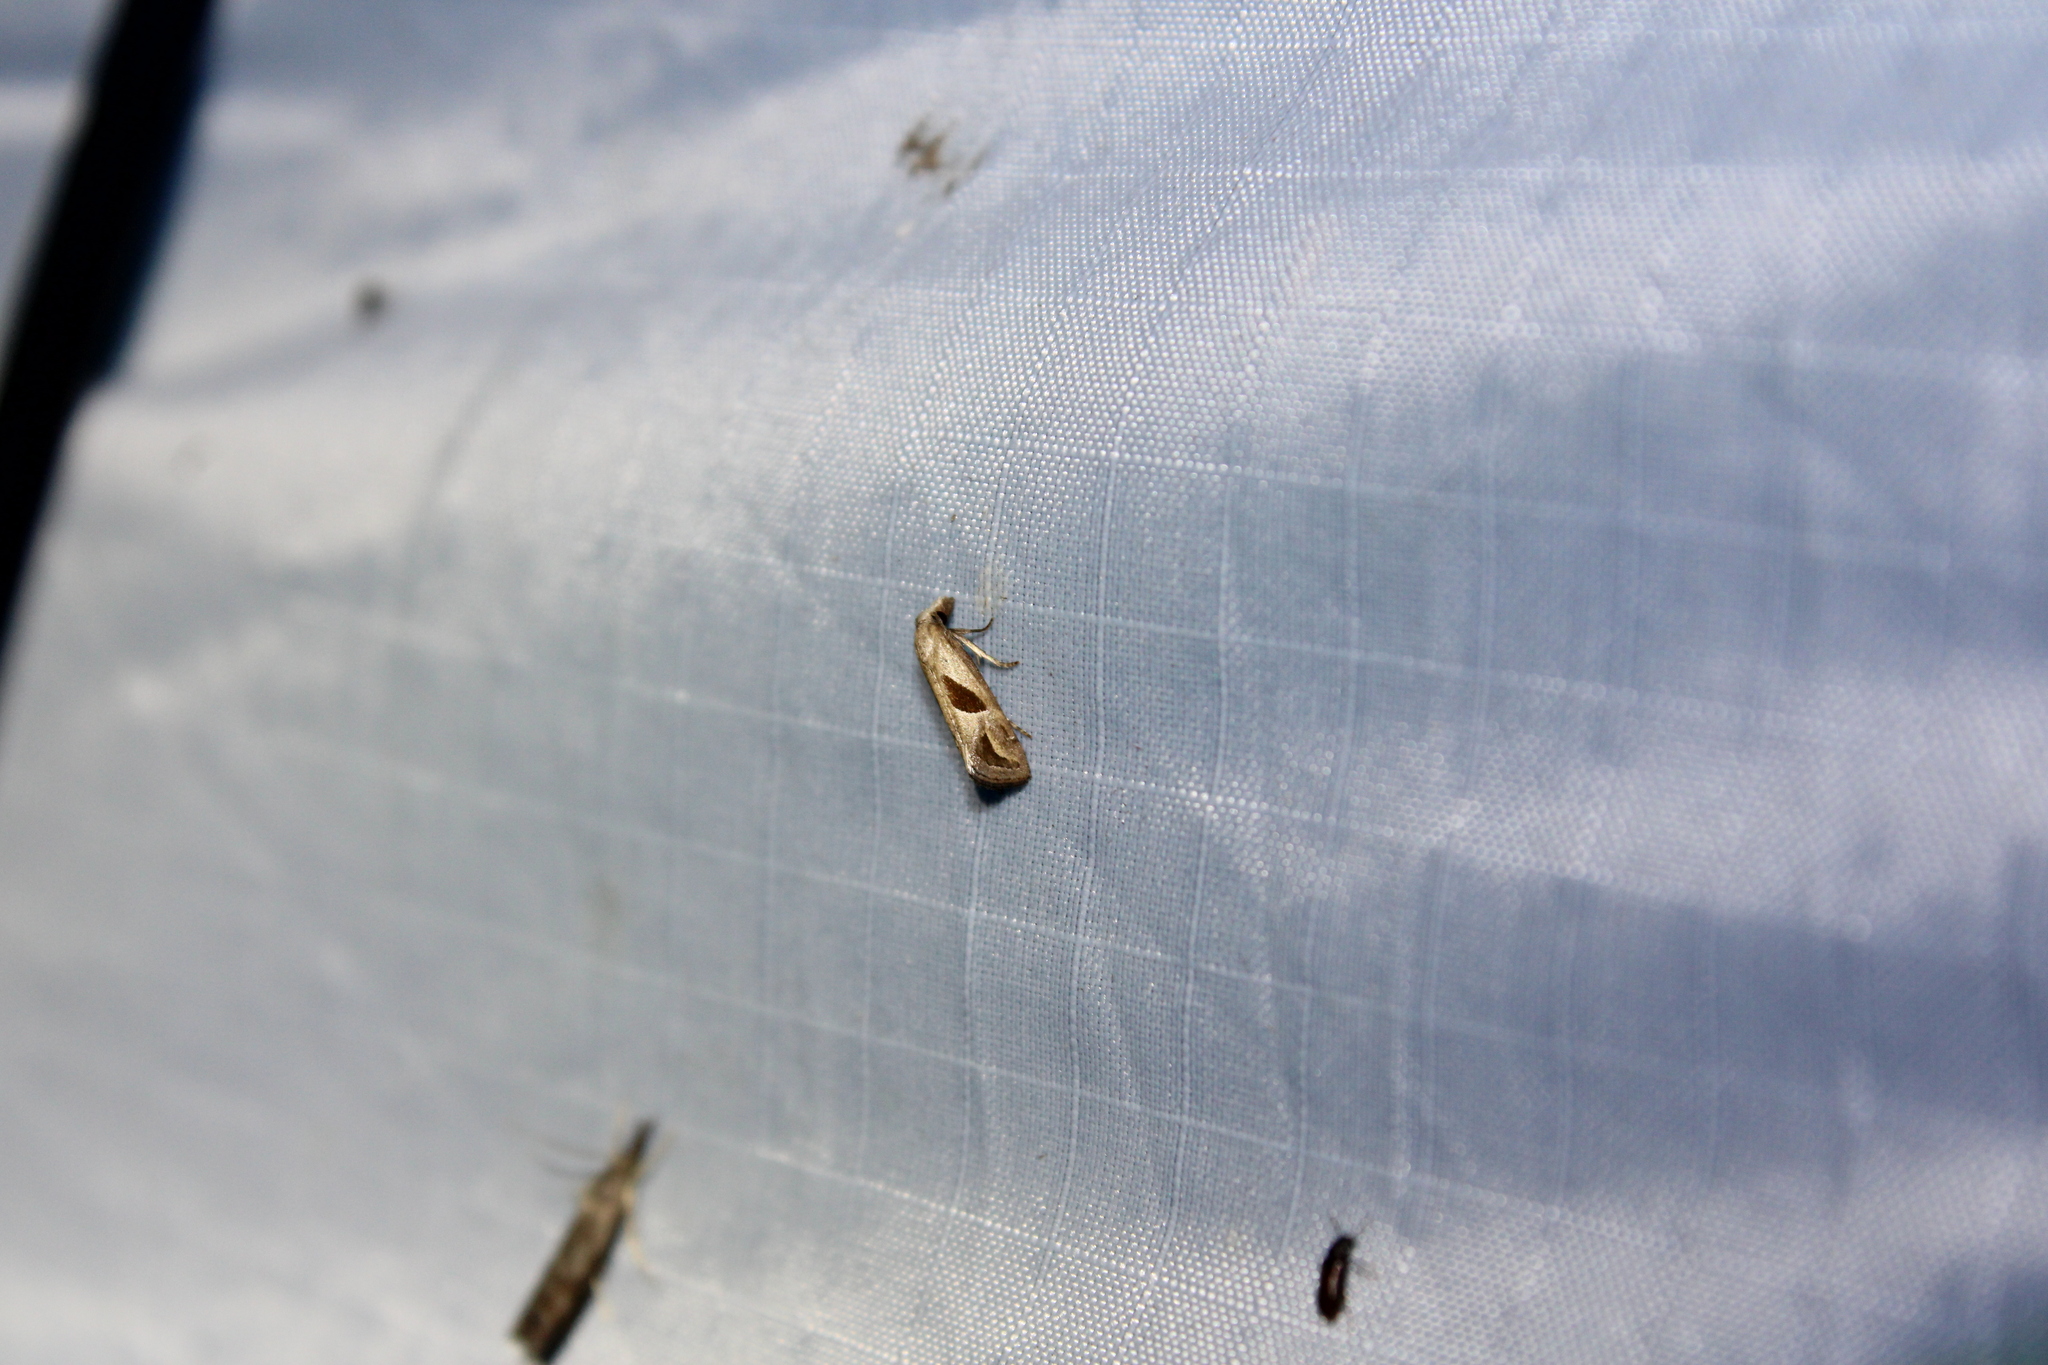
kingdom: Animalia
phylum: Arthropoda
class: Insecta
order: Lepidoptera
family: Tortricidae
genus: Eugnosta
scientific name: Eugnosta bimaculana
